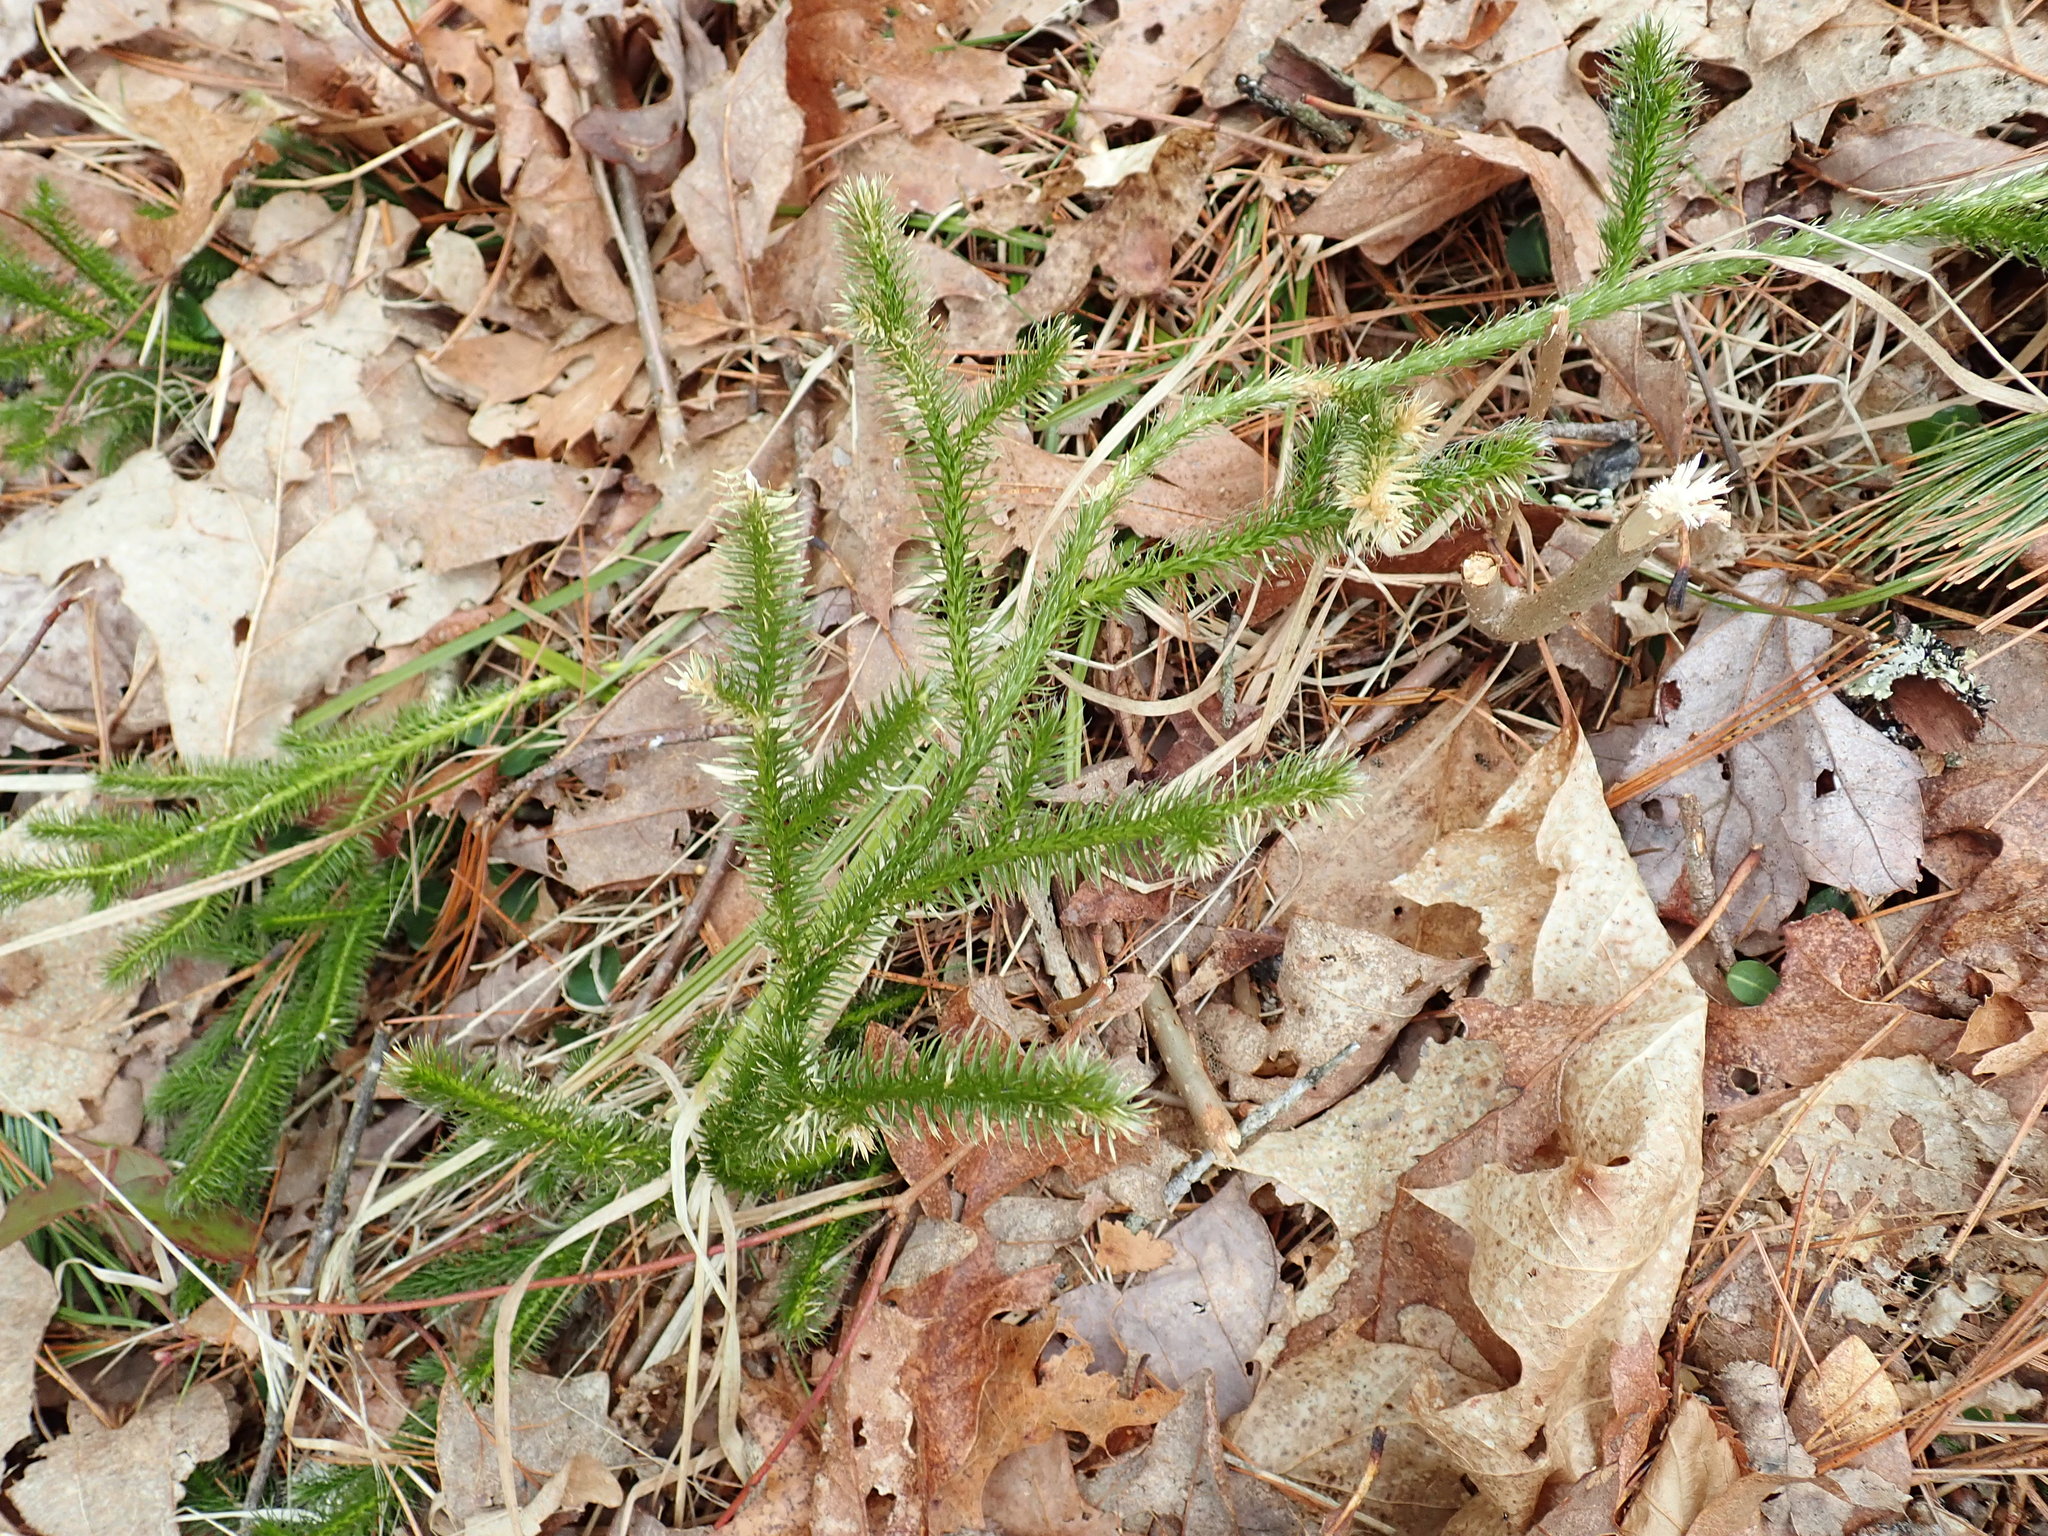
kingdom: Plantae
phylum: Tracheophyta
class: Lycopodiopsida
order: Lycopodiales
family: Lycopodiaceae
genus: Lycopodium
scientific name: Lycopodium clavatum
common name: Stag's-horn clubmoss
